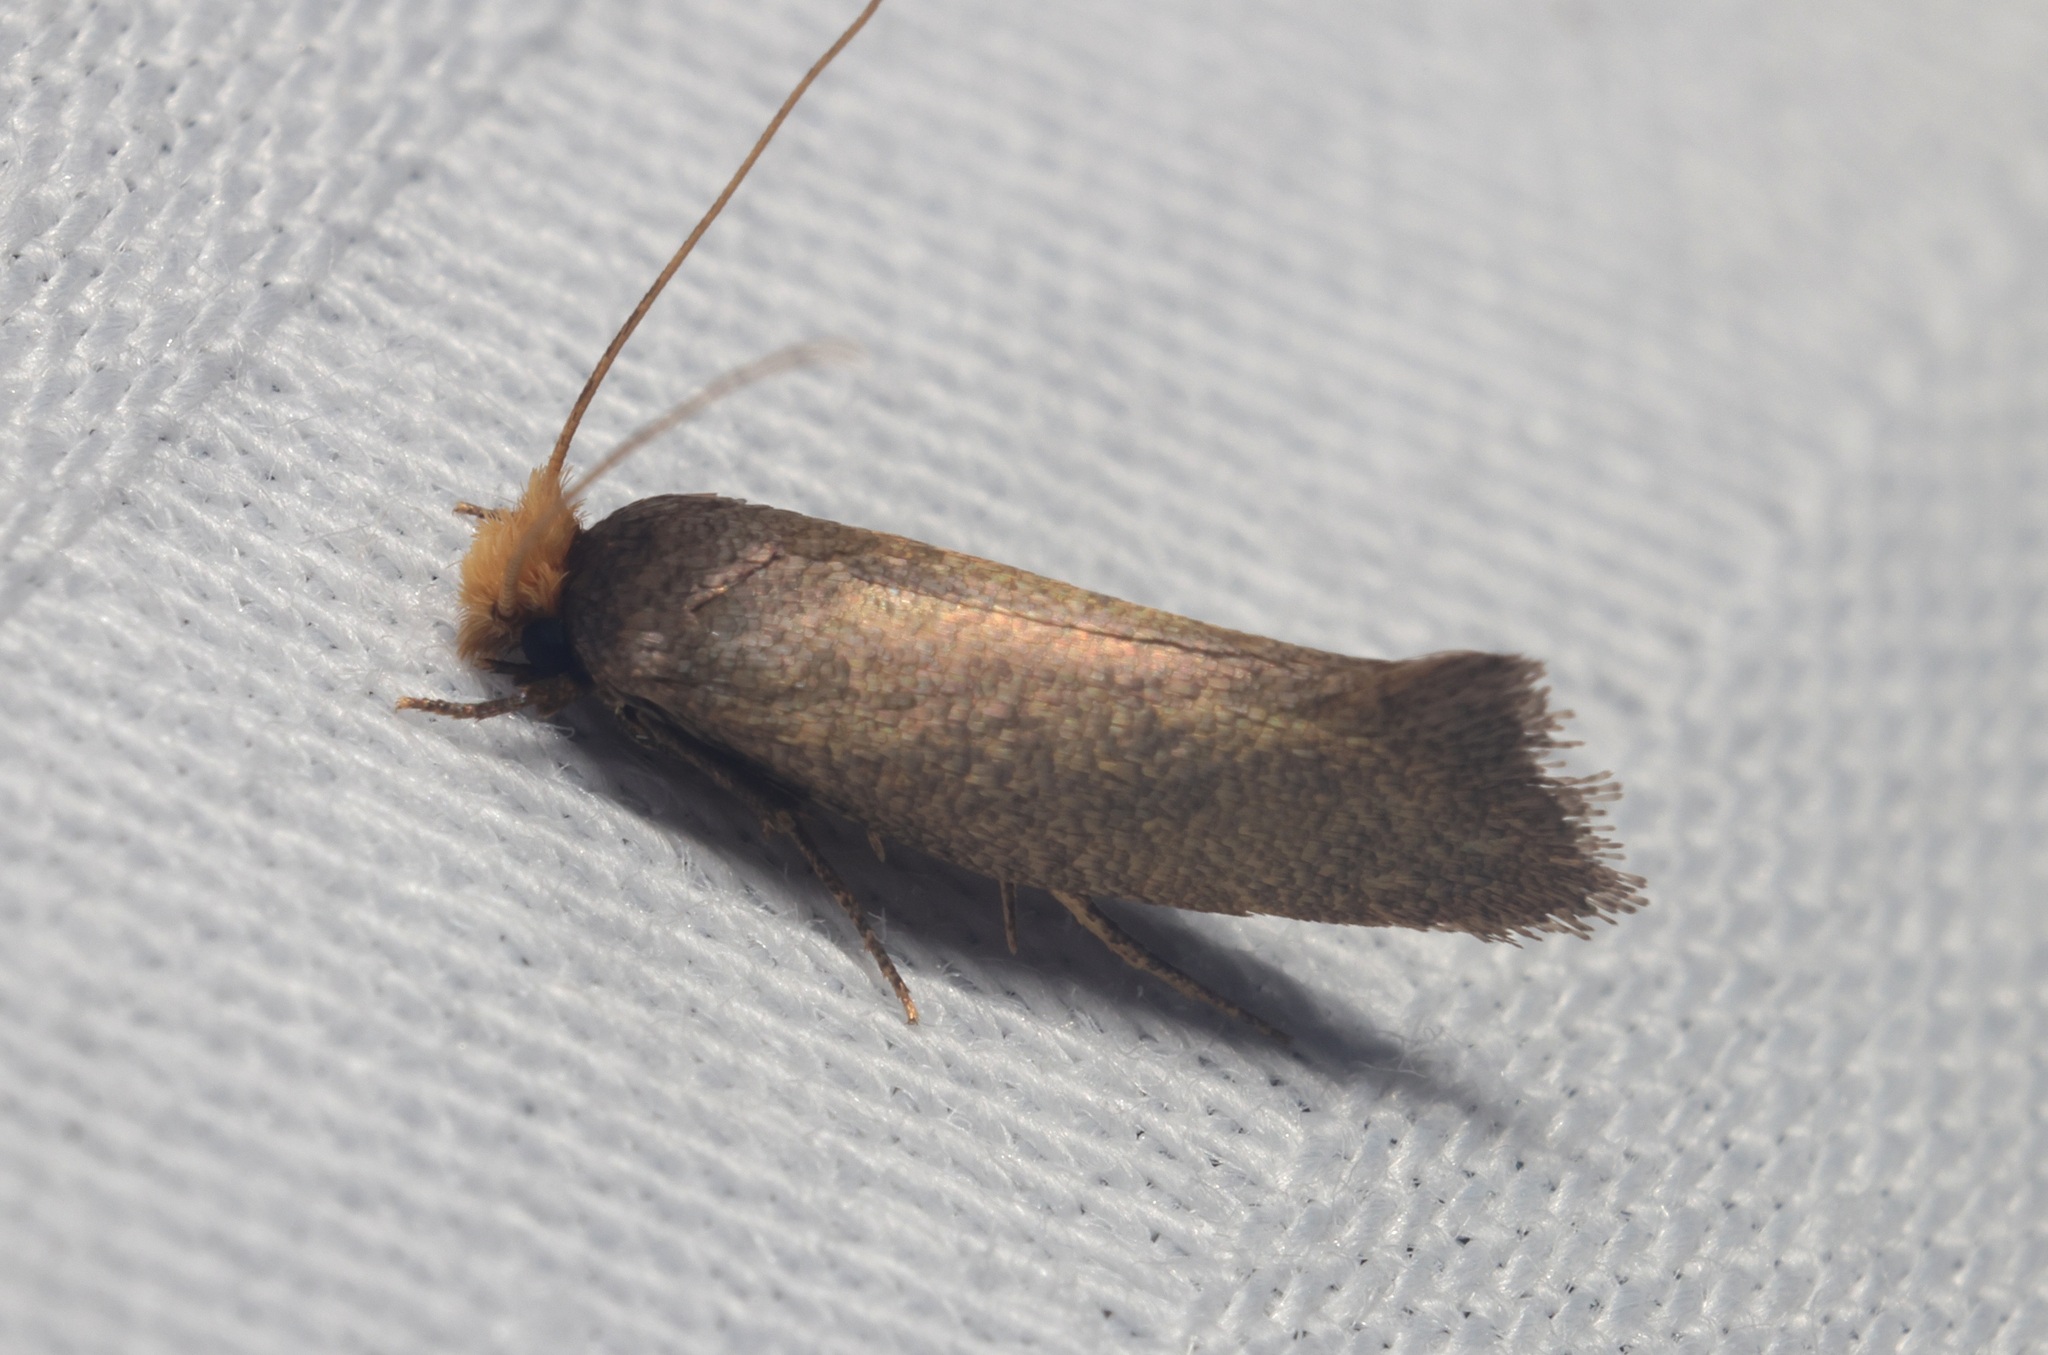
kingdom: Animalia
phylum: Arthropoda
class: Insecta
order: Lepidoptera
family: Tineidae
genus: Edosa
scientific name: Edosa varians
